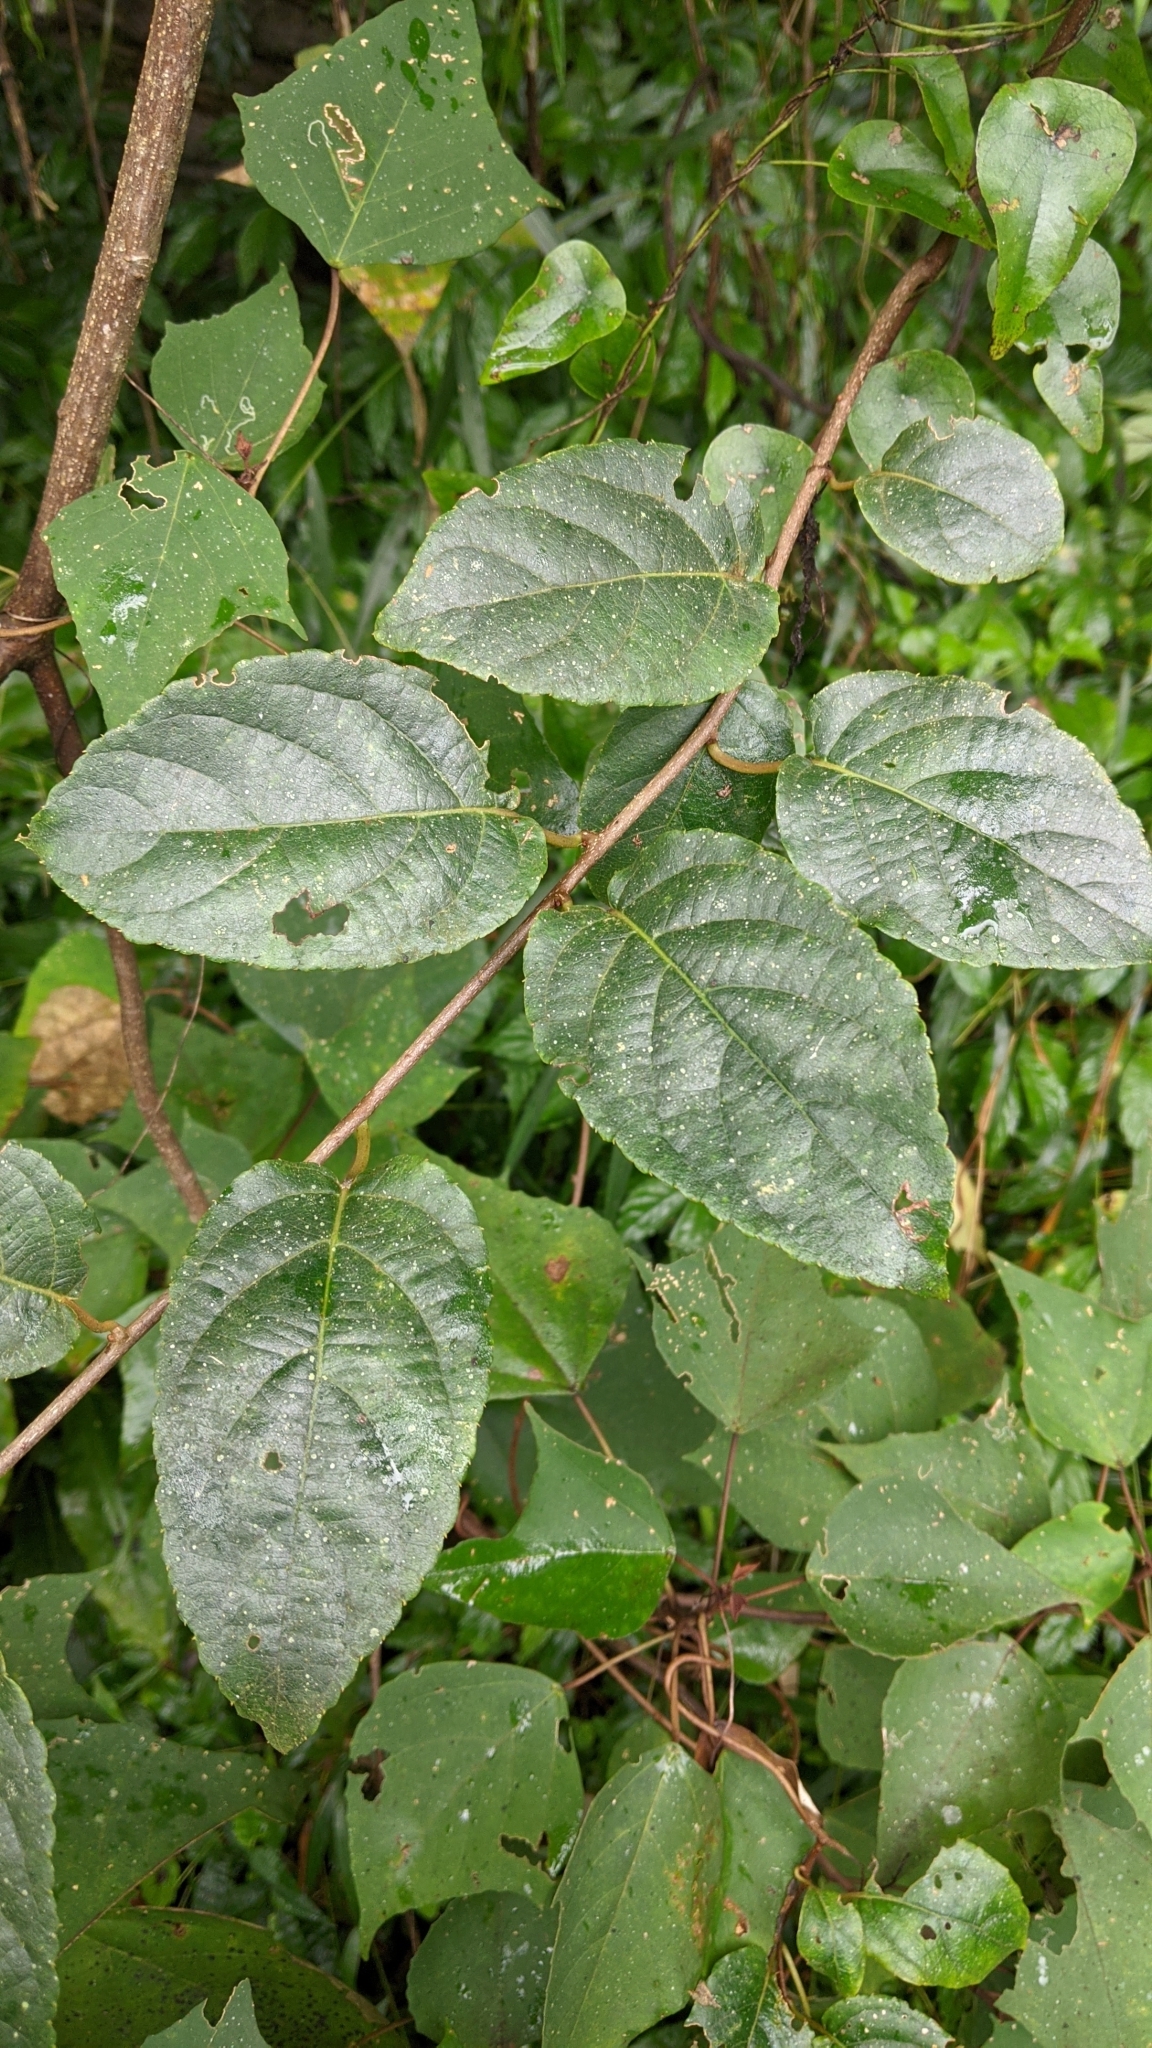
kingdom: Plantae
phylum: Tracheophyta
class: Magnoliopsida
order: Ericales
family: Actinidiaceae
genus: Actinidia
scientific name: Actinidia rufa
